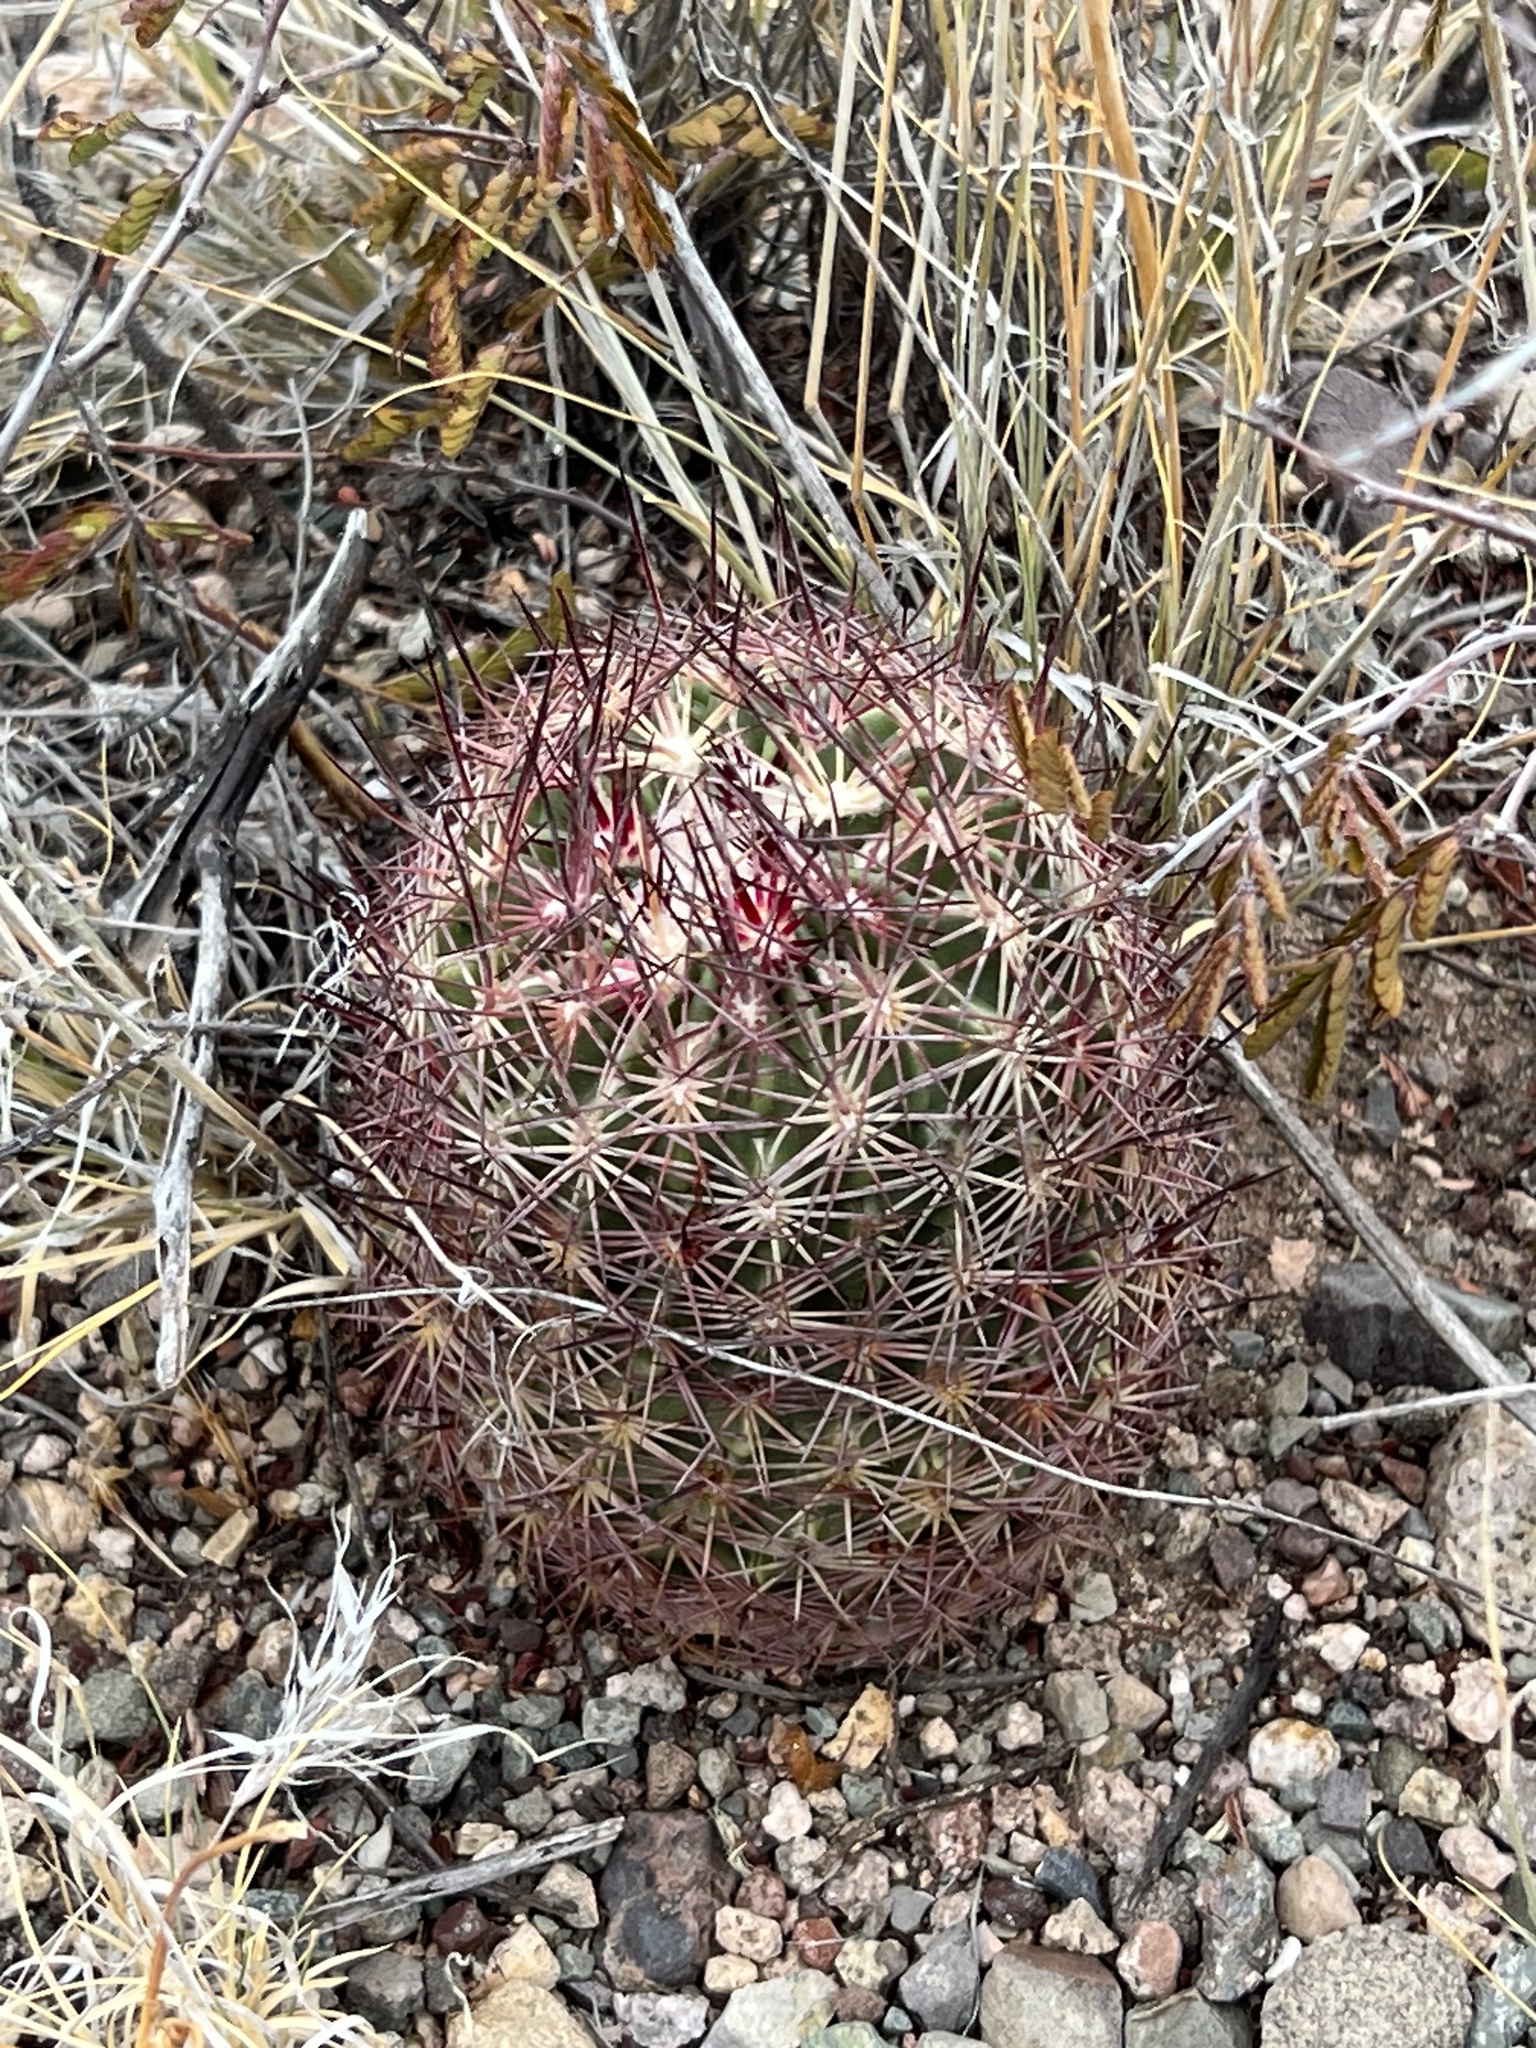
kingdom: Plantae
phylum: Tracheophyta
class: Magnoliopsida
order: Caryophyllales
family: Cactaceae
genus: Sclerocactus
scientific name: Sclerocactus johnsonii
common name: Eight-spine fishhook cactus
